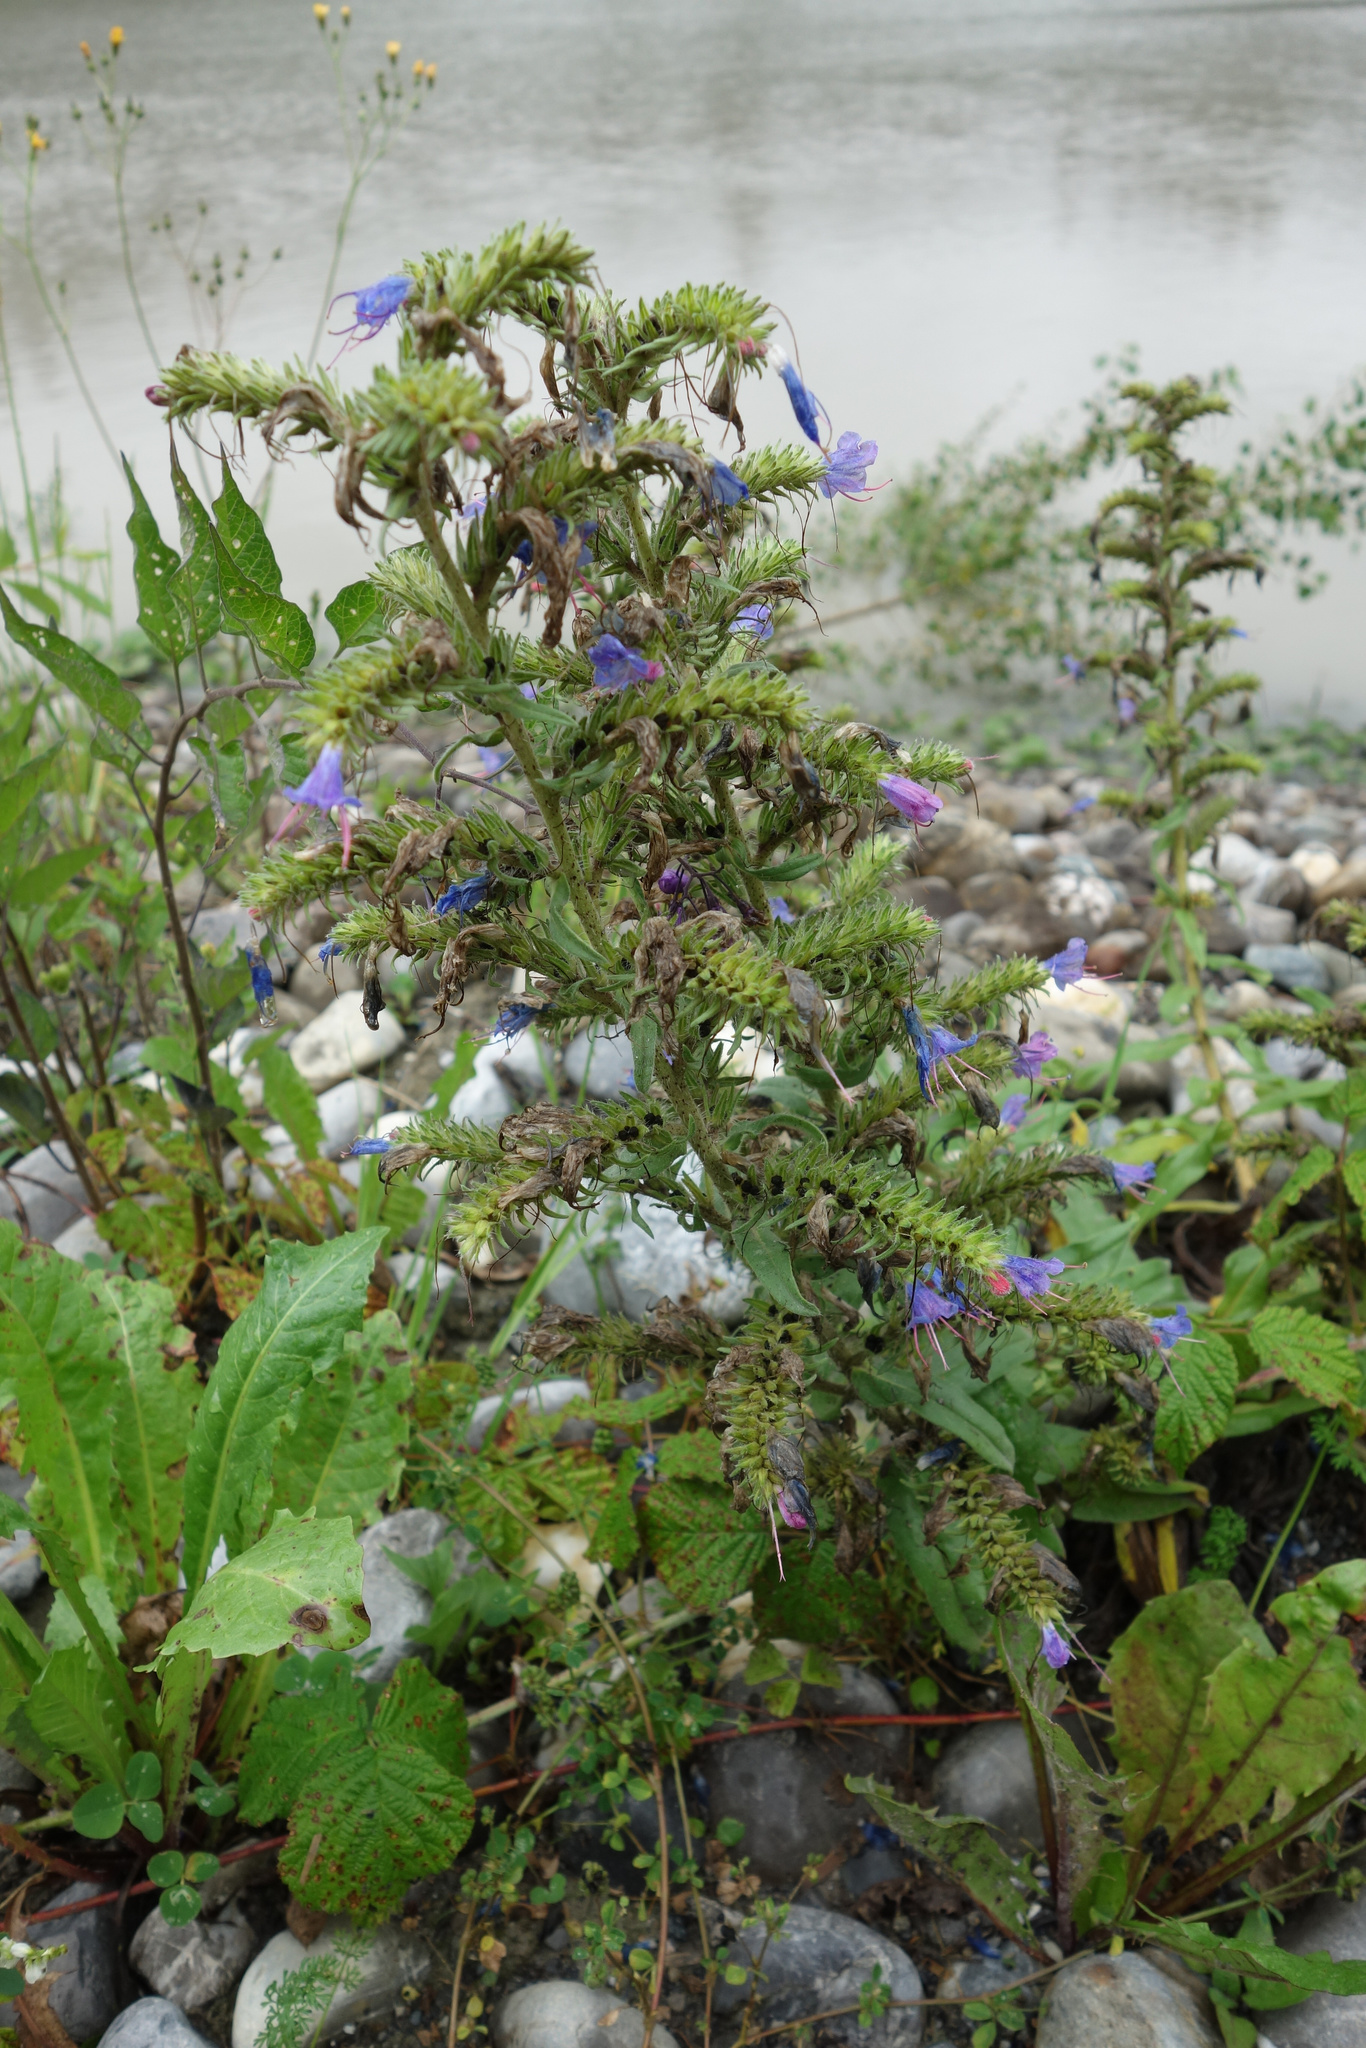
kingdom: Plantae
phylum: Tracheophyta
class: Magnoliopsida
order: Boraginales
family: Boraginaceae
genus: Echium
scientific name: Echium vulgare
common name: Common viper's bugloss
